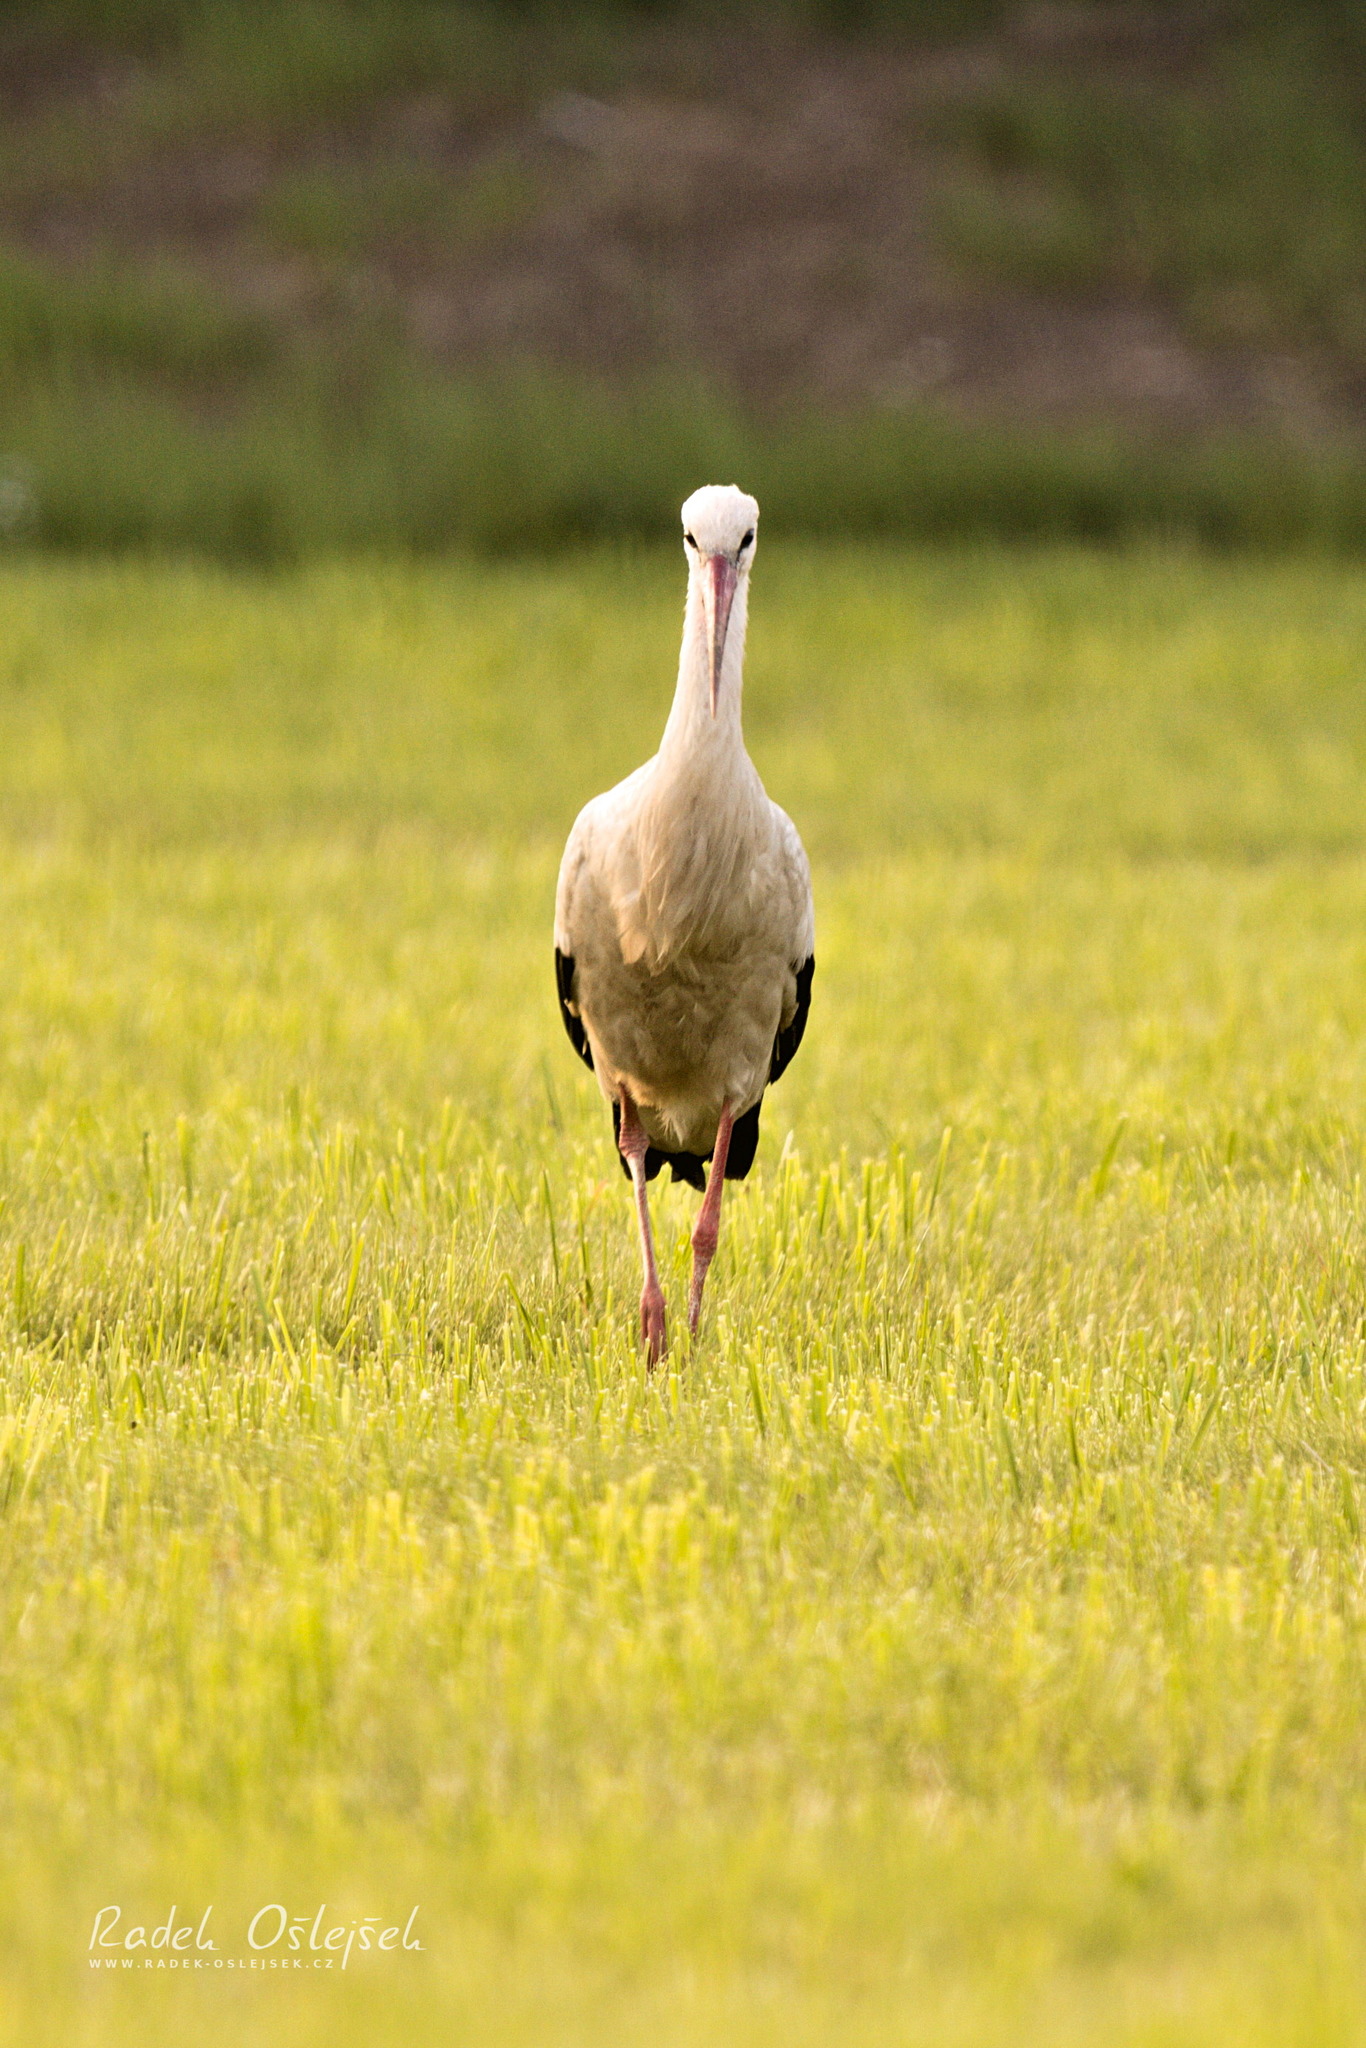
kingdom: Animalia
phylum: Chordata
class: Aves
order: Ciconiiformes
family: Ciconiidae
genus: Ciconia
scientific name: Ciconia ciconia
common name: White stork
